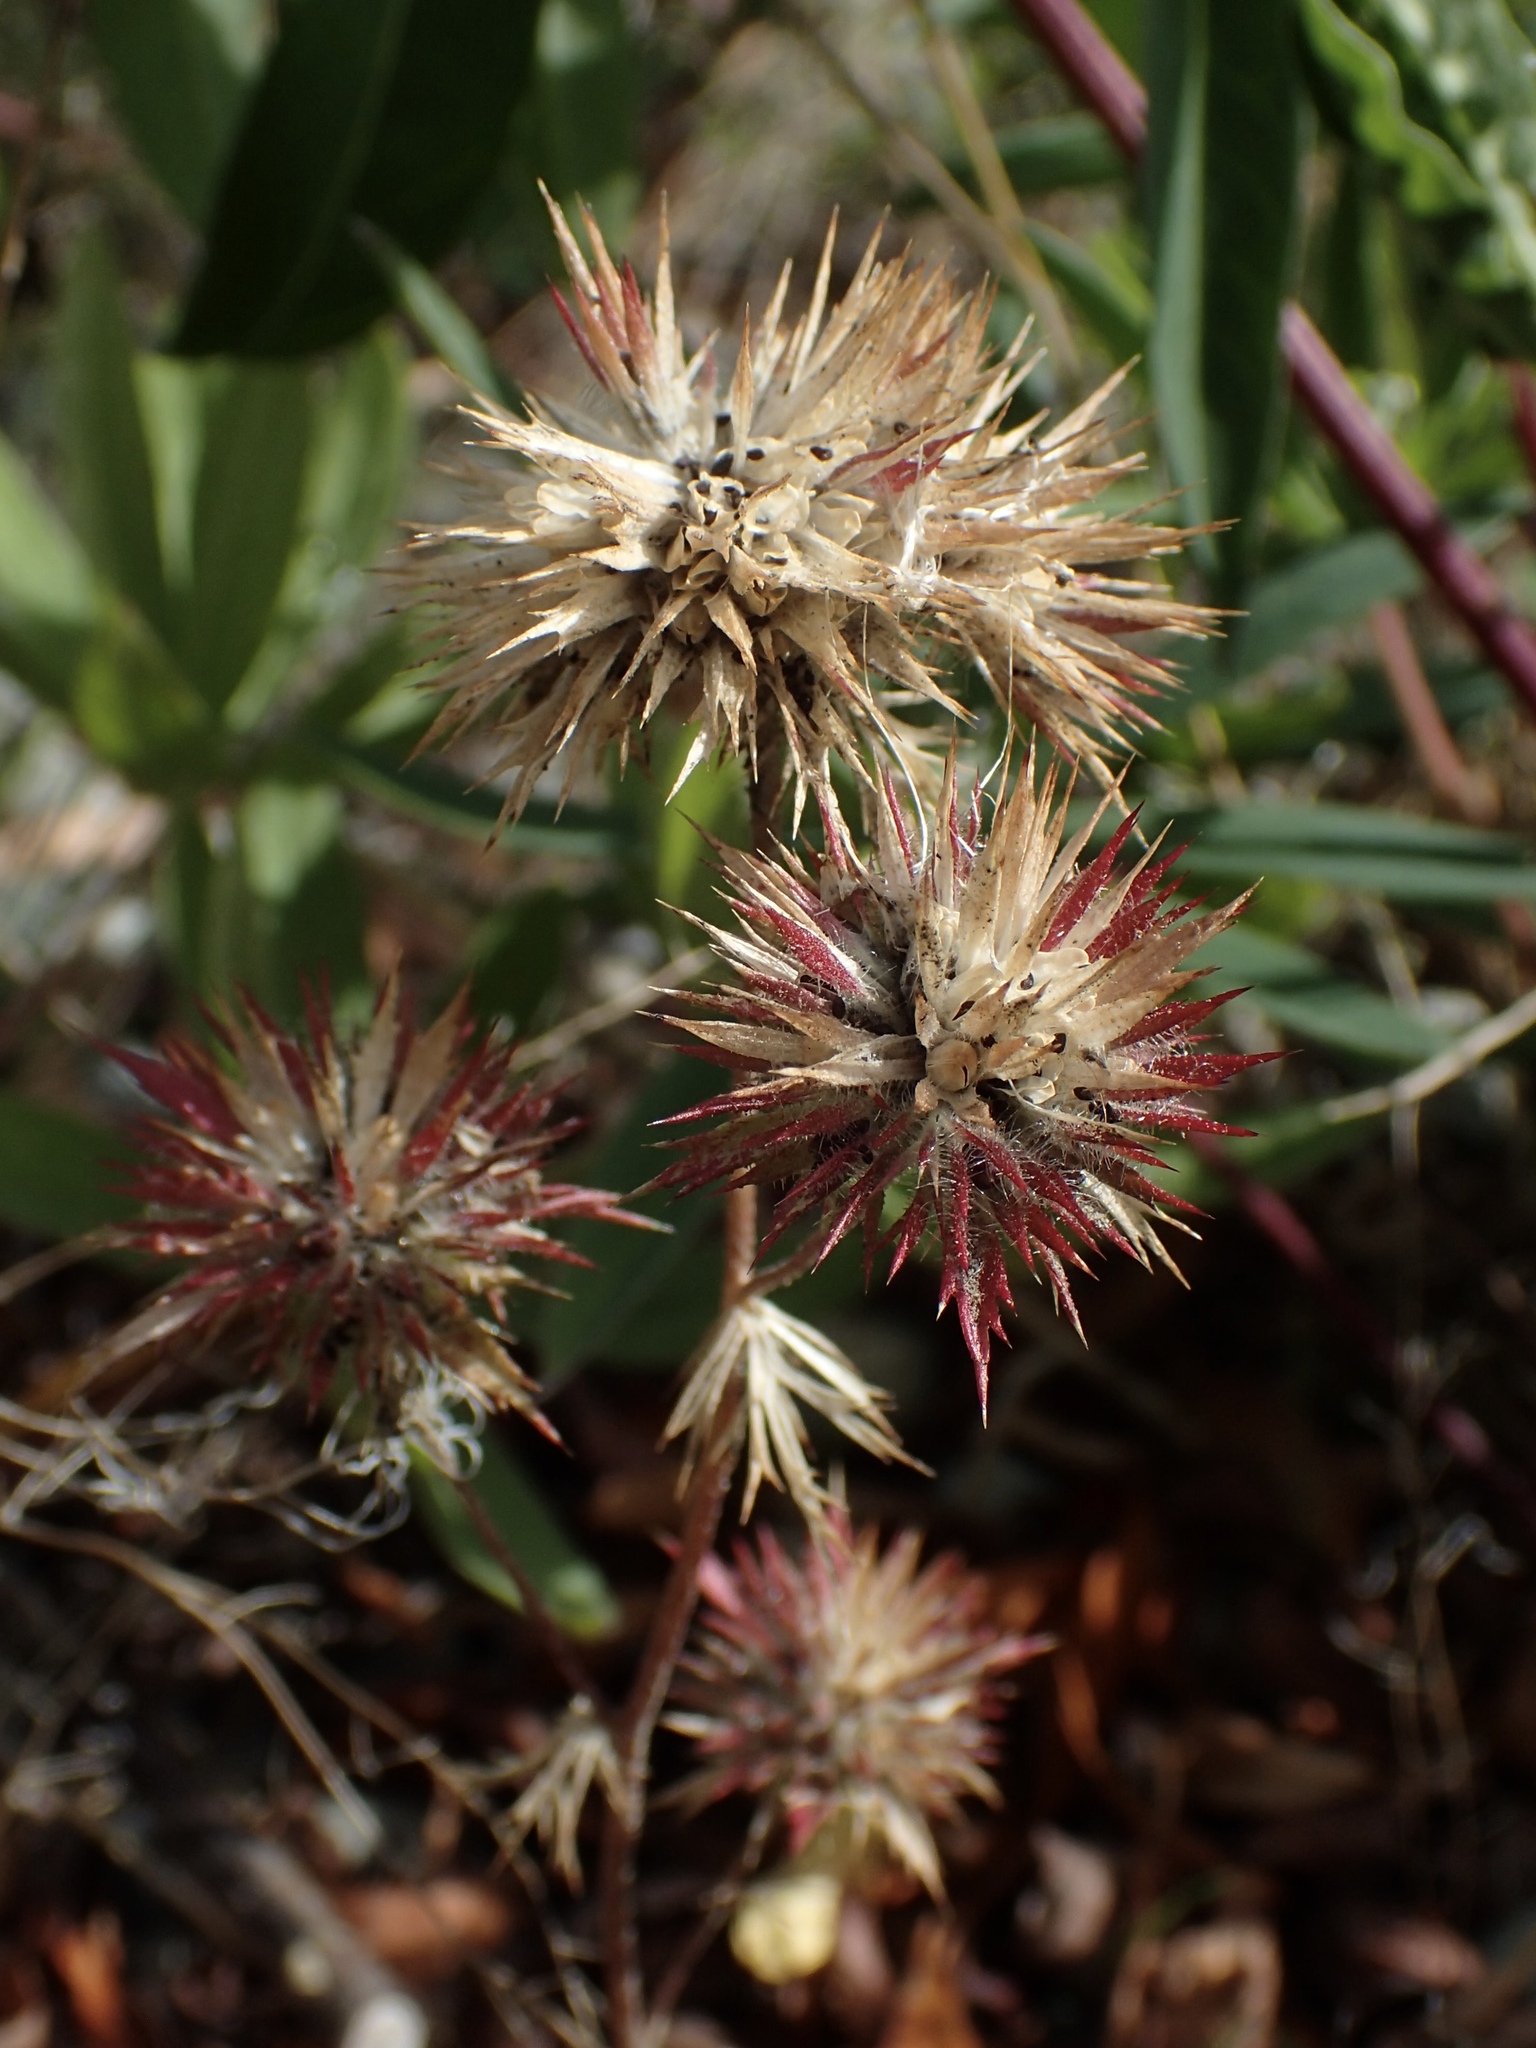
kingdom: Plantae
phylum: Tracheophyta
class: Magnoliopsida
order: Ericales
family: Polemoniaceae
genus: Navarretia
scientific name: Navarretia squarrosa
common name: Skunkweed
